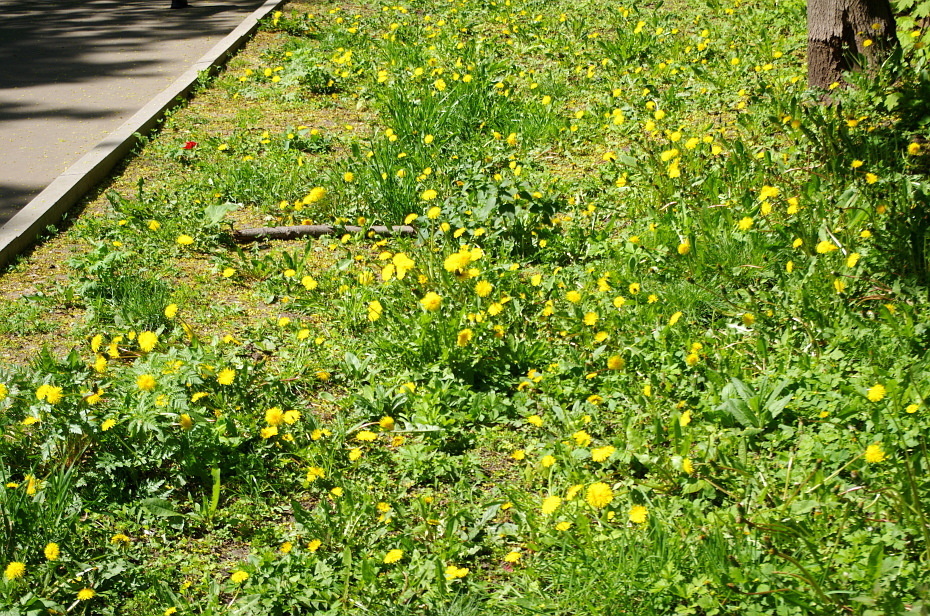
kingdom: Plantae
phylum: Tracheophyta
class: Magnoliopsida
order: Asterales
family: Asteraceae
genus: Taraxacum
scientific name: Taraxacum officinale
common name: Common dandelion
